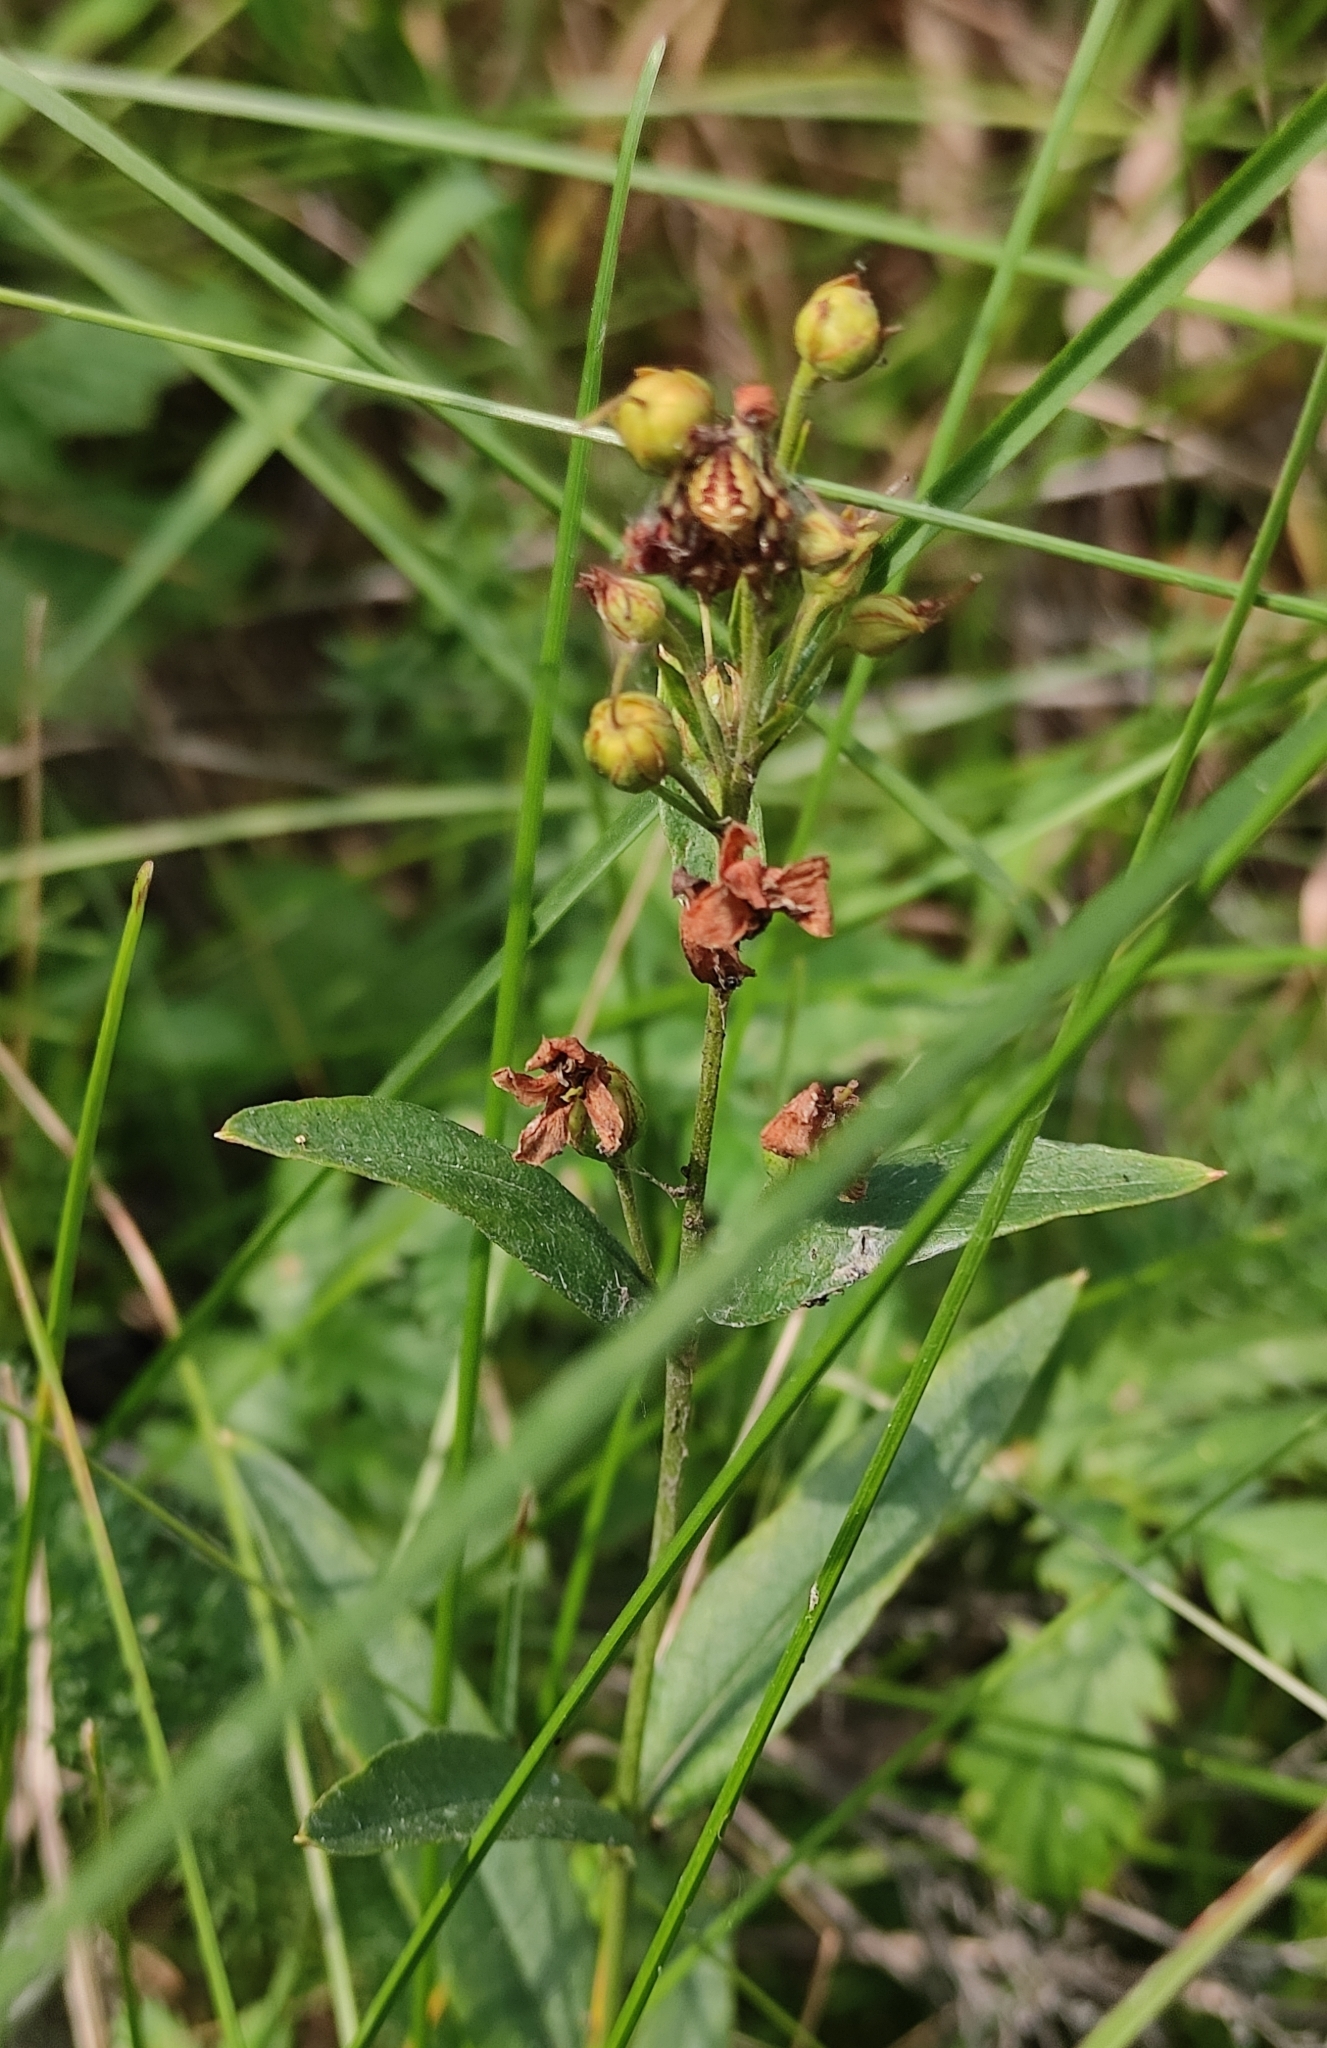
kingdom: Plantae
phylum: Tracheophyta
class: Magnoliopsida
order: Ericales
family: Primulaceae
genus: Lysimachia
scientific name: Lysimachia davurica
